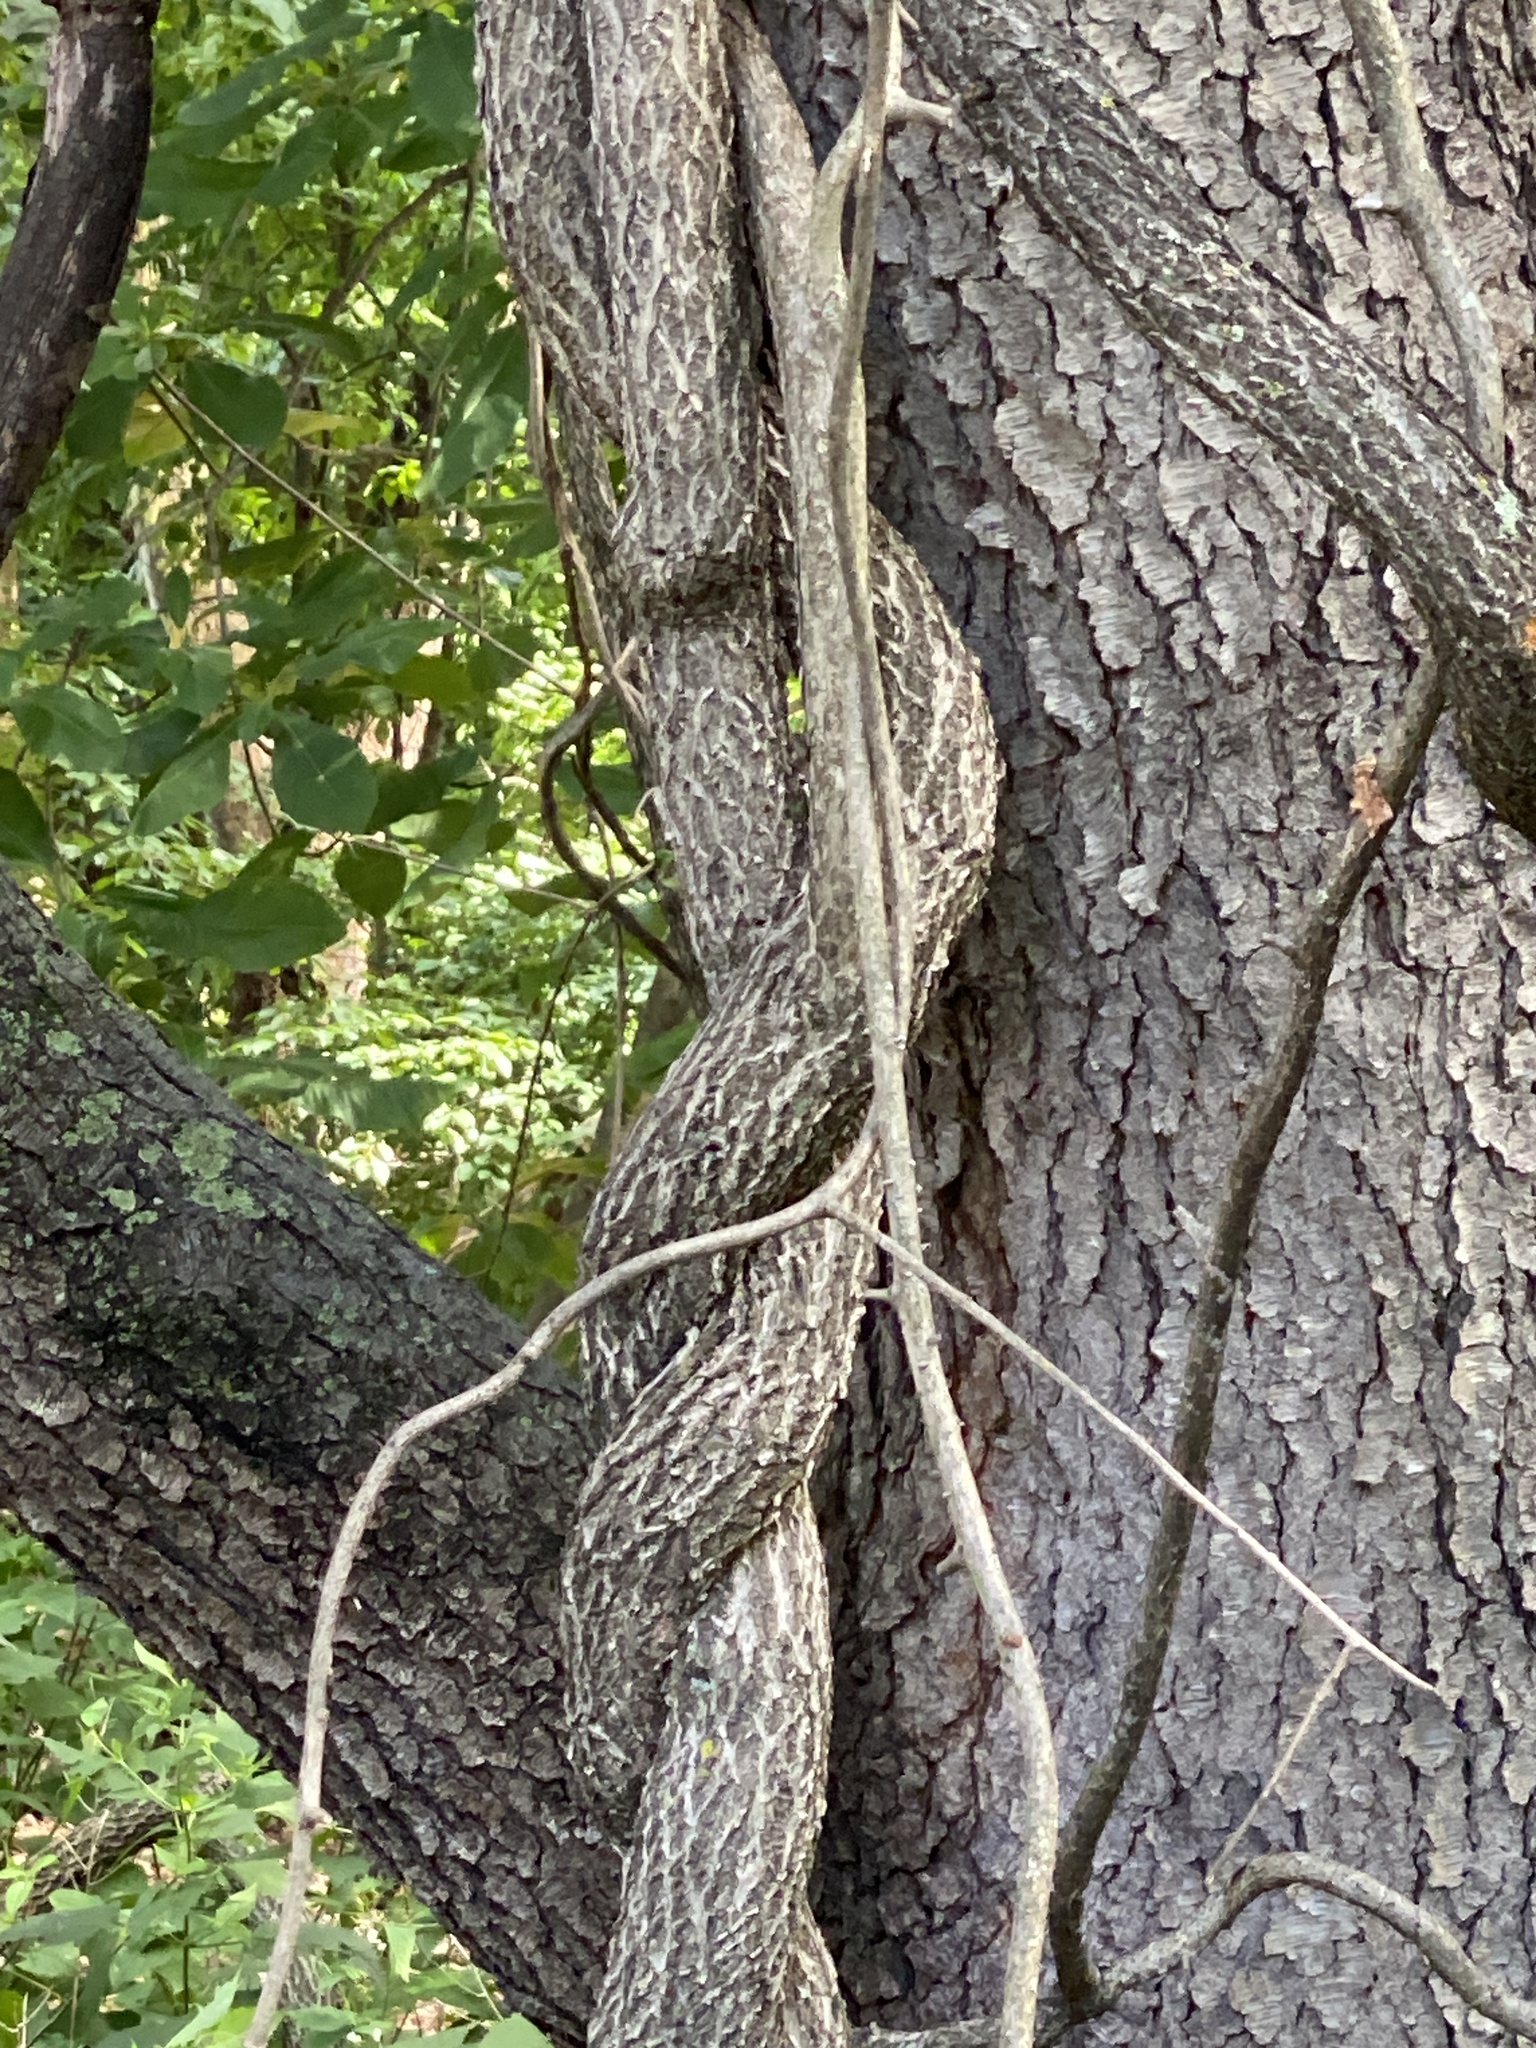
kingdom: Plantae
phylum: Tracheophyta
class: Magnoliopsida
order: Celastrales
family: Celastraceae
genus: Celastrus
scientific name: Celastrus orbiculatus
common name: Oriental bittersweet
